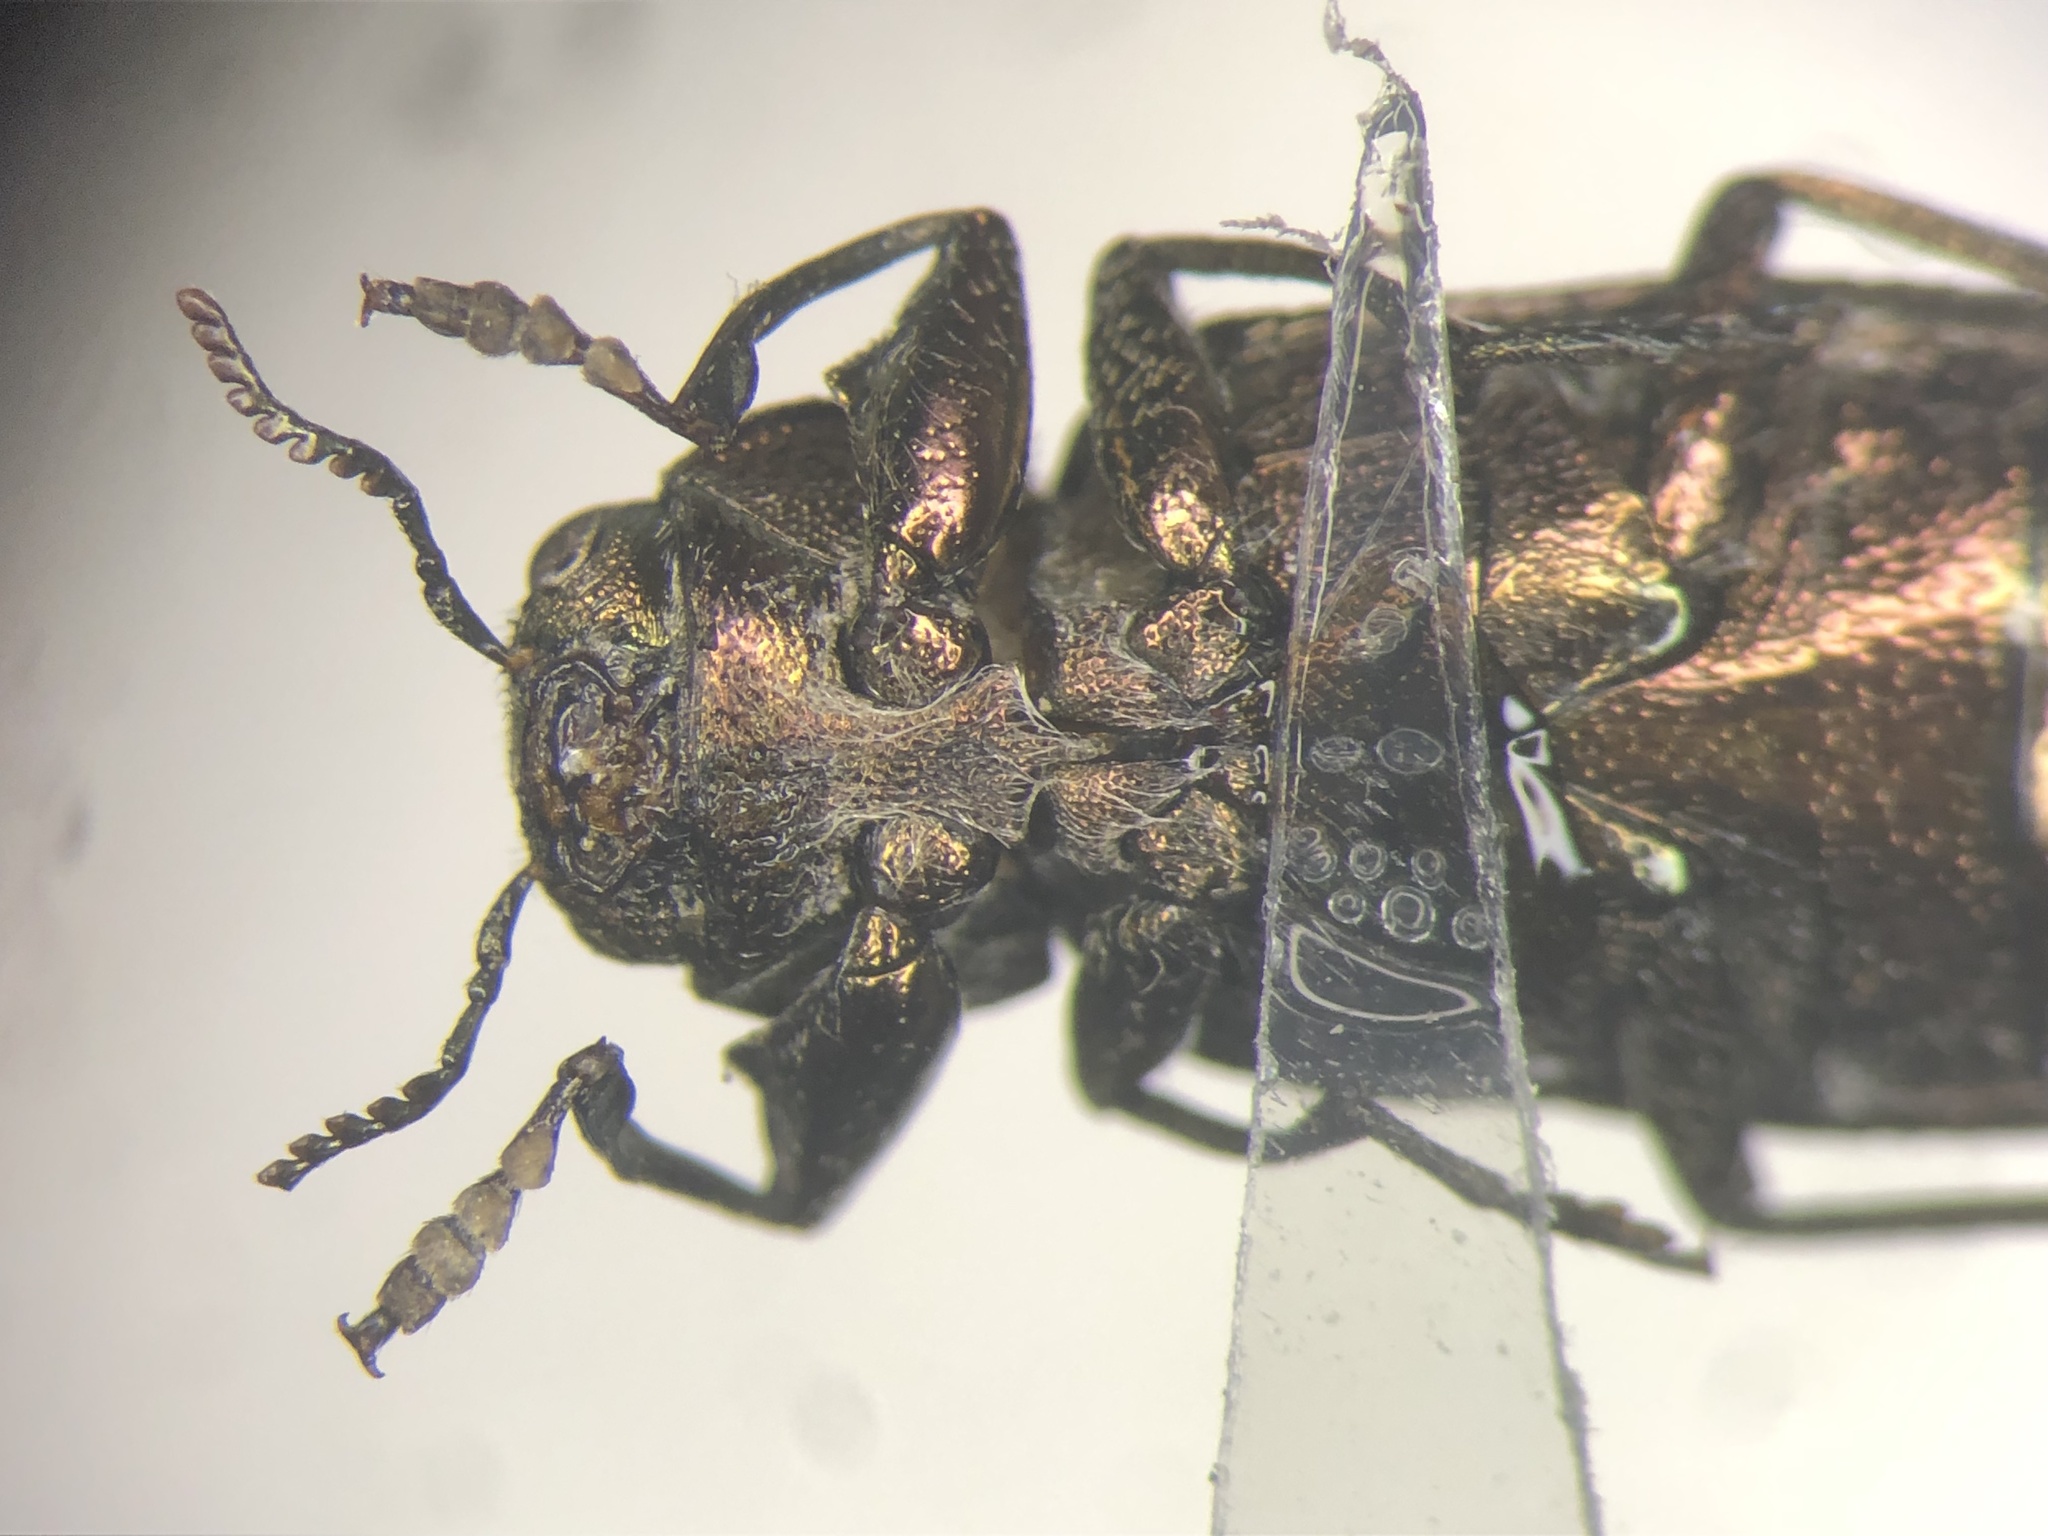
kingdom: Animalia
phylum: Arthropoda
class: Insecta
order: Coleoptera
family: Buprestidae
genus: Chrysobothris
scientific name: Chrysobothris rotundicollis
